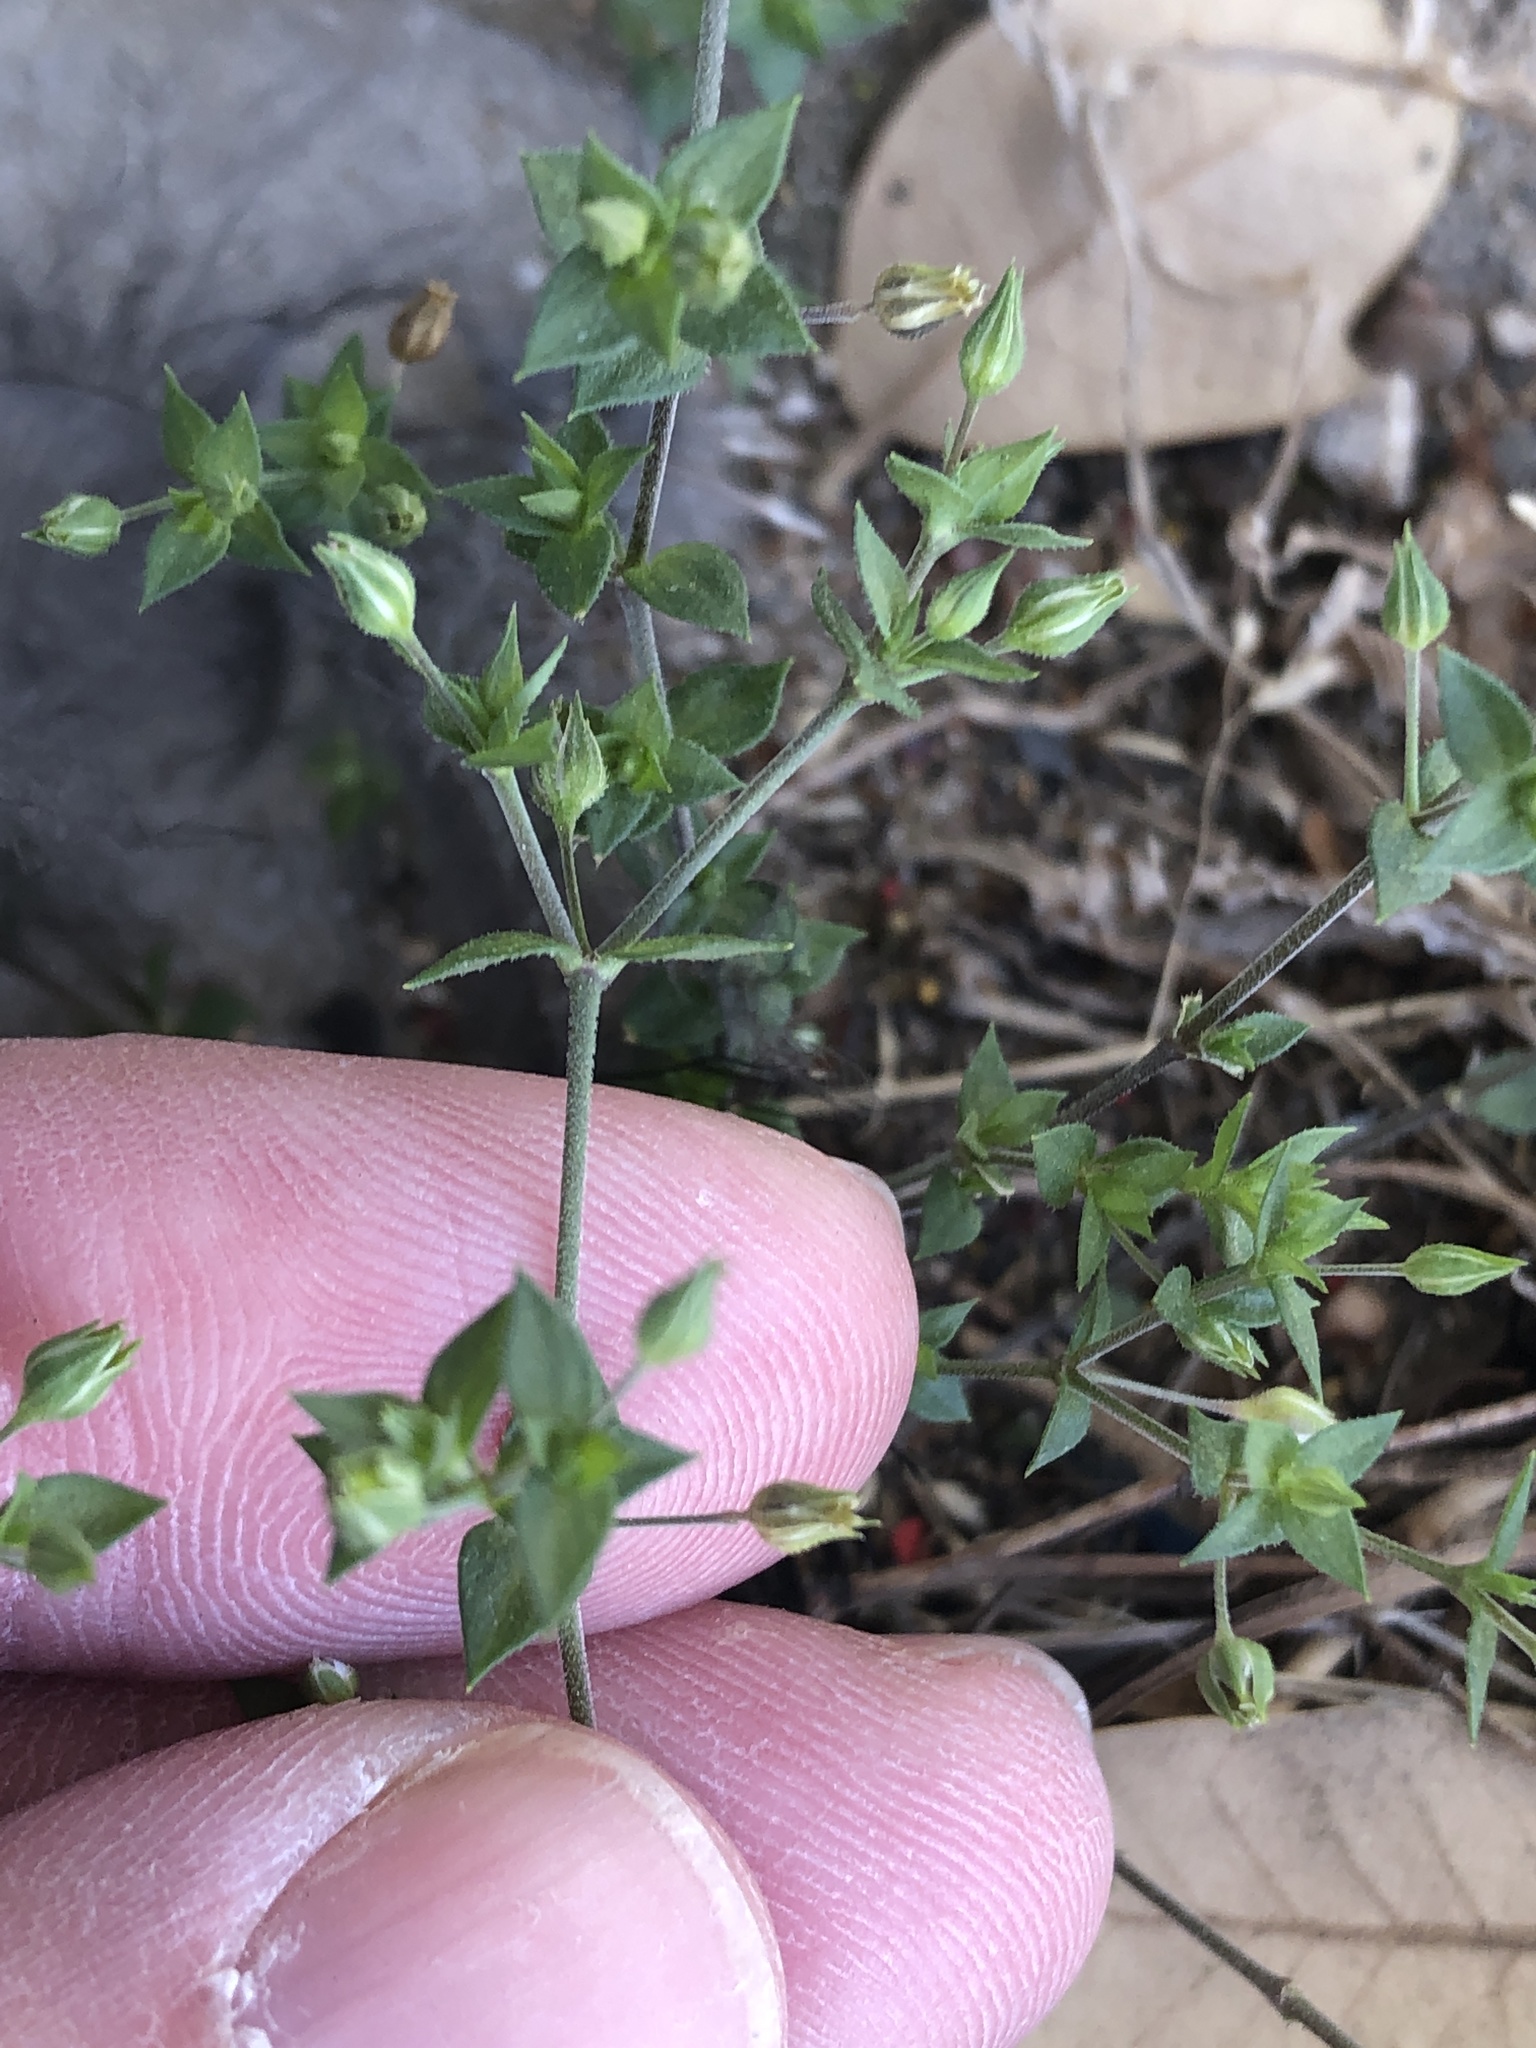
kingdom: Plantae
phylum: Tracheophyta
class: Magnoliopsida
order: Caryophyllales
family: Caryophyllaceae
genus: Arenaria
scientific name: Arenaria serpyllifolia
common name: Thyme-leaved sandwort
